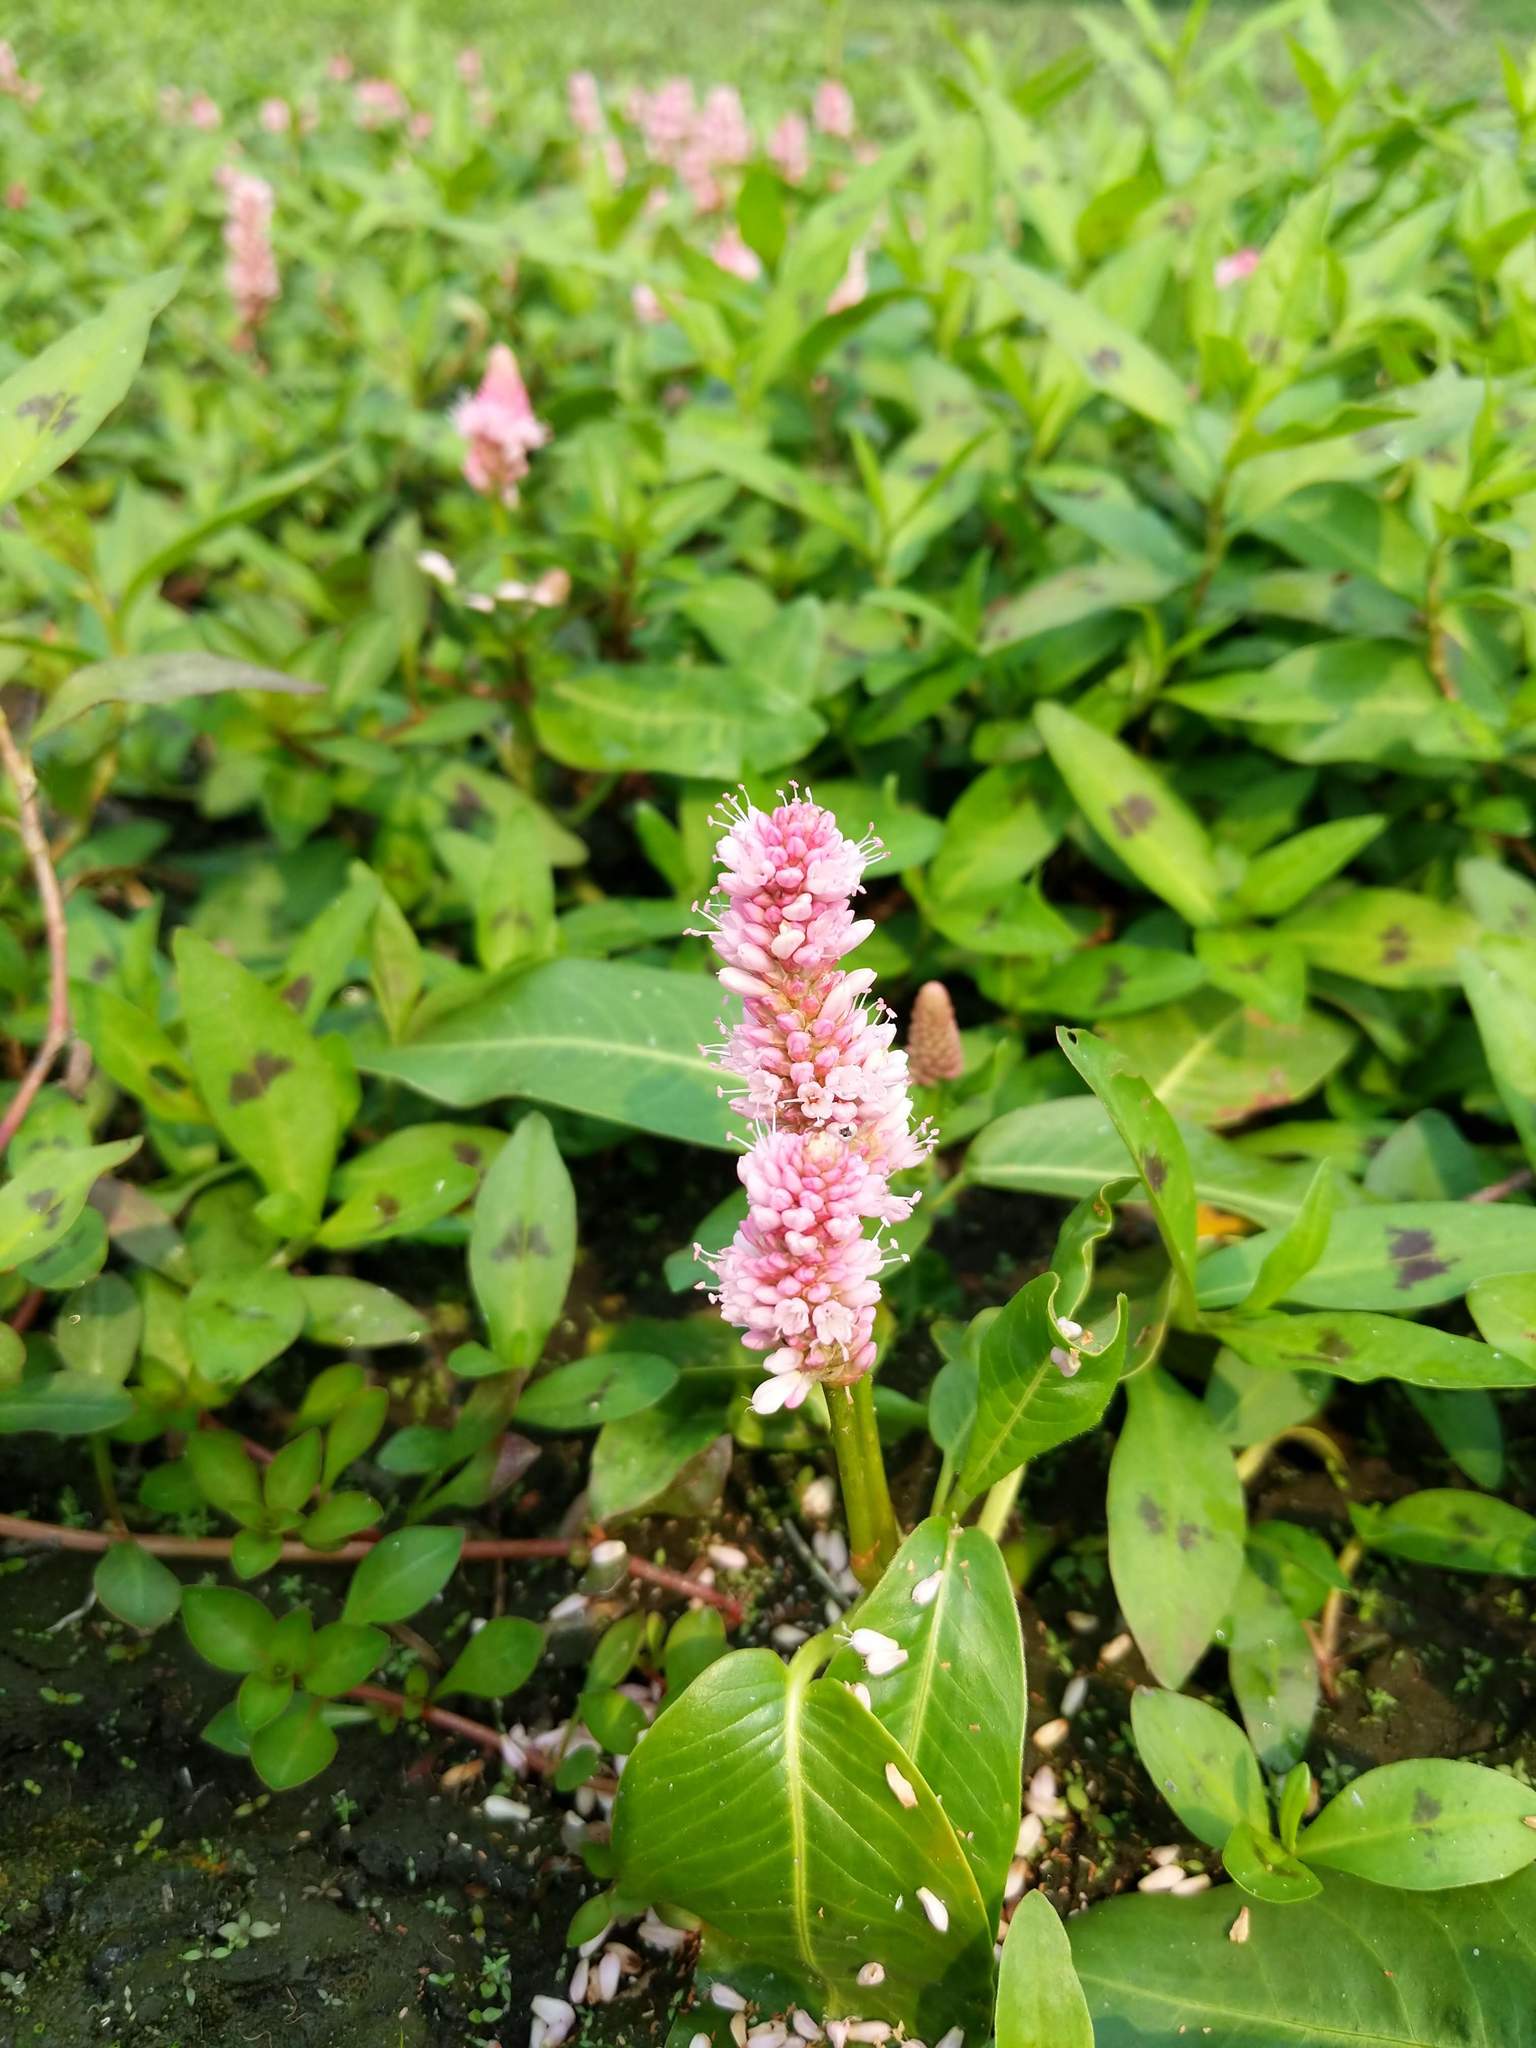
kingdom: Plantae
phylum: Tracheophyta
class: Magnoliopsida
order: Caryophyllales
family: Polygonaceae
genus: Persicaria
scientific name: Persicaria amphibia
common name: Amphibious bistort
